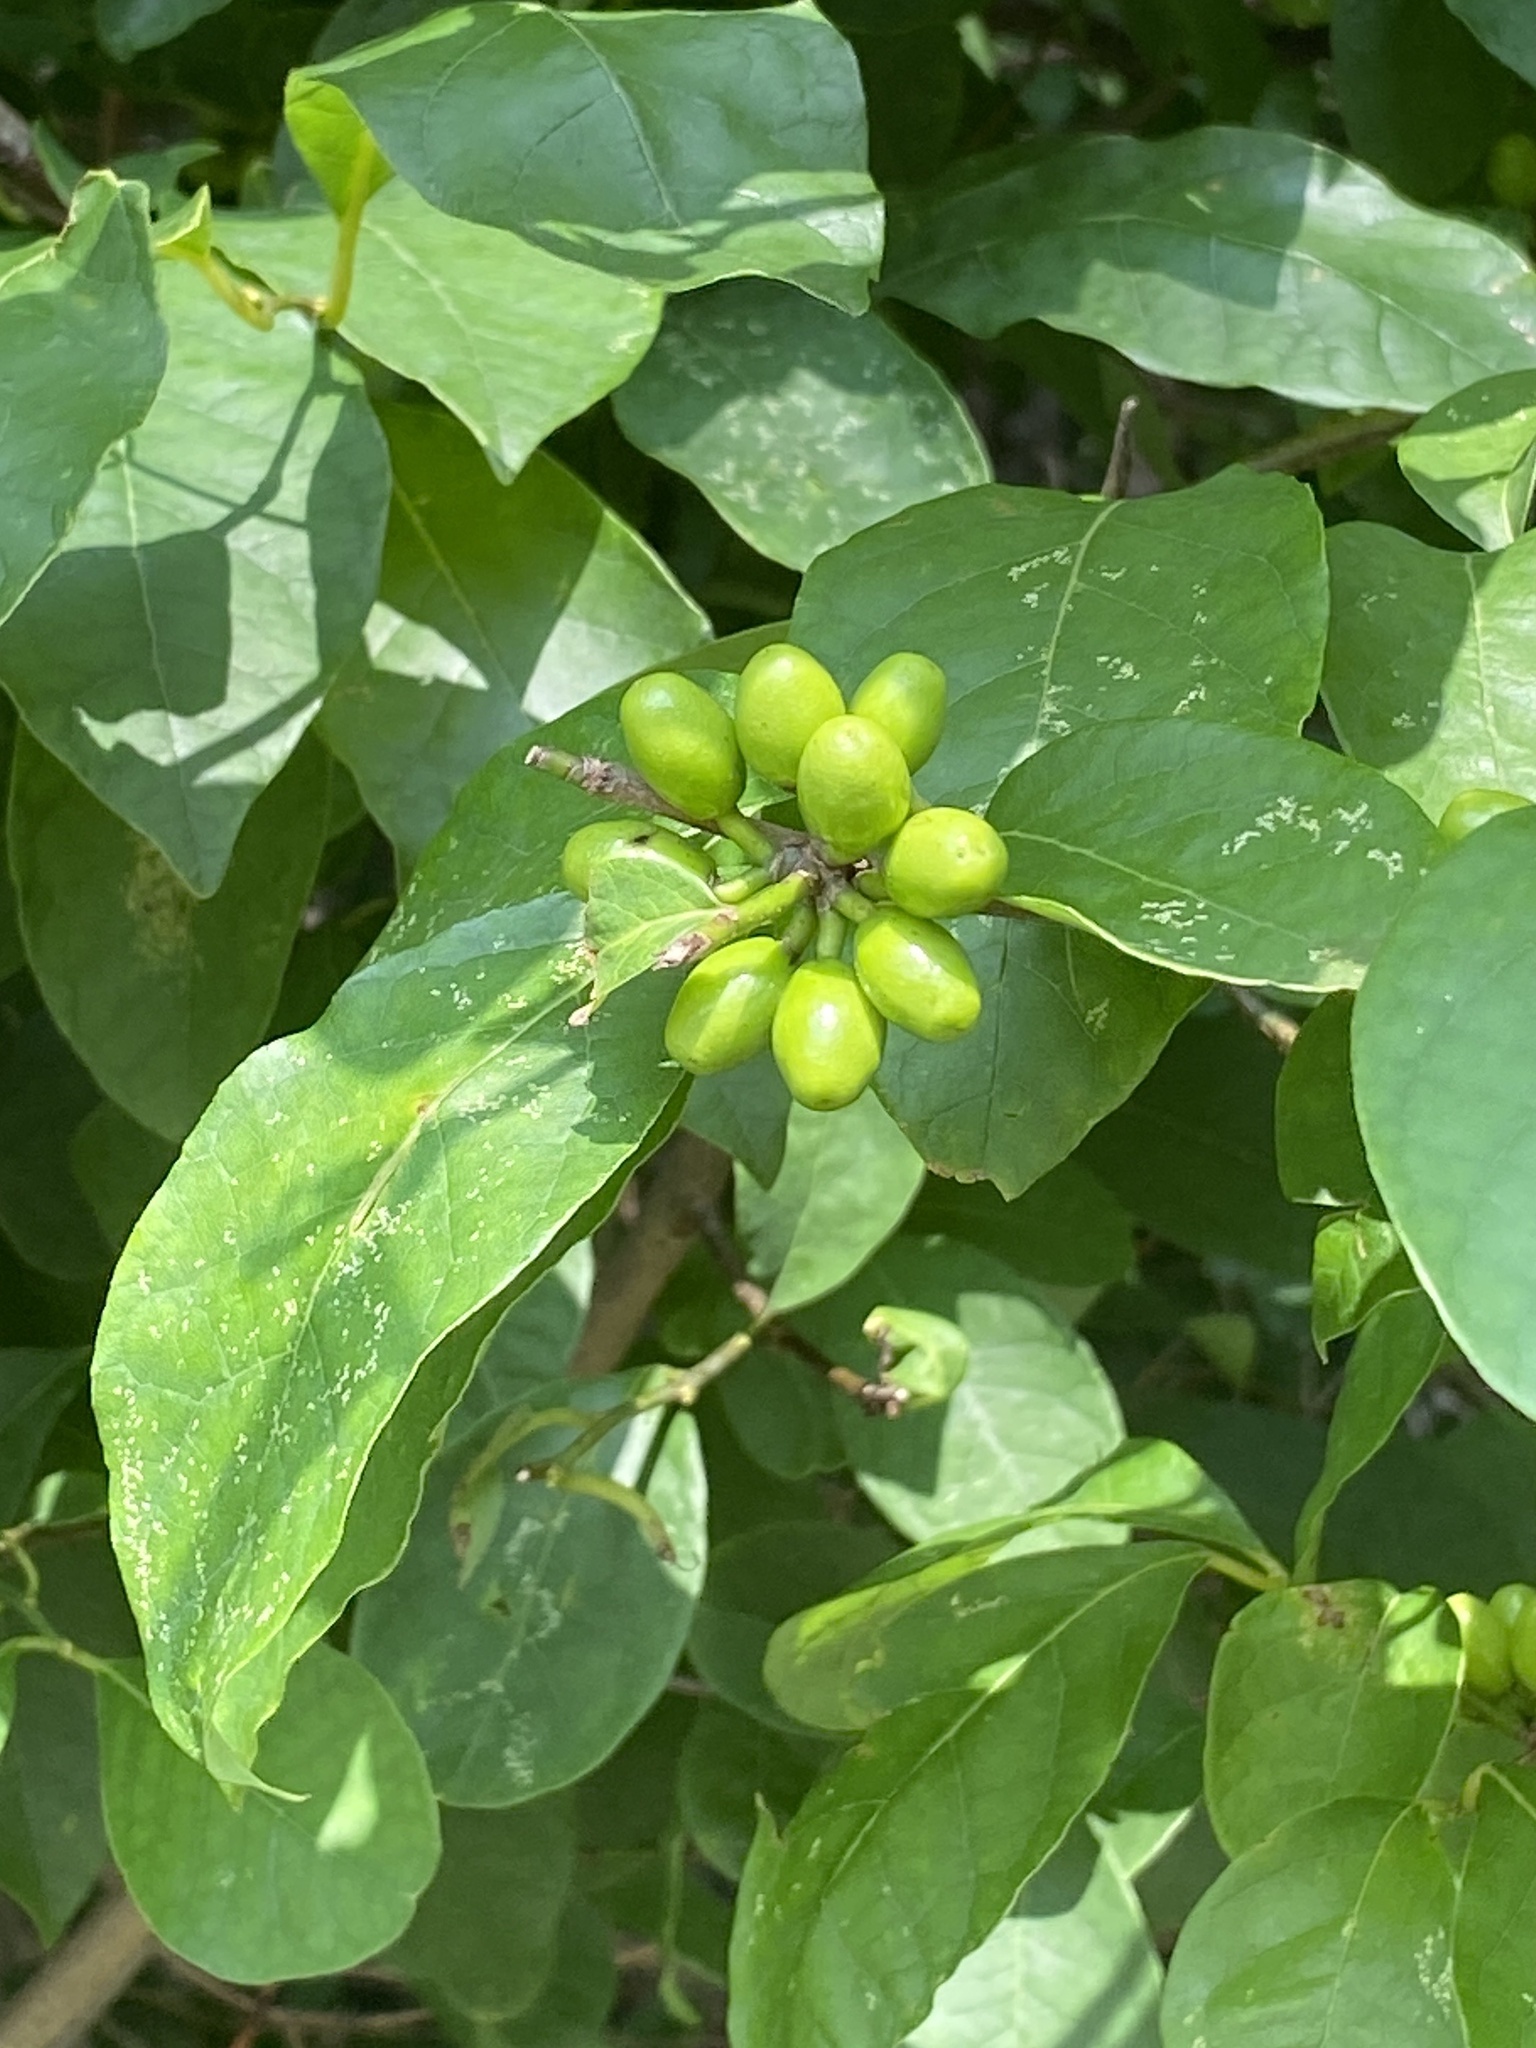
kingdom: Plantae
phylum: Tracheophyta
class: Magnoliopsida
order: Laurales
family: Lauraceae
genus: Lindera
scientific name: Lindera benzoin
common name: Spicebush
